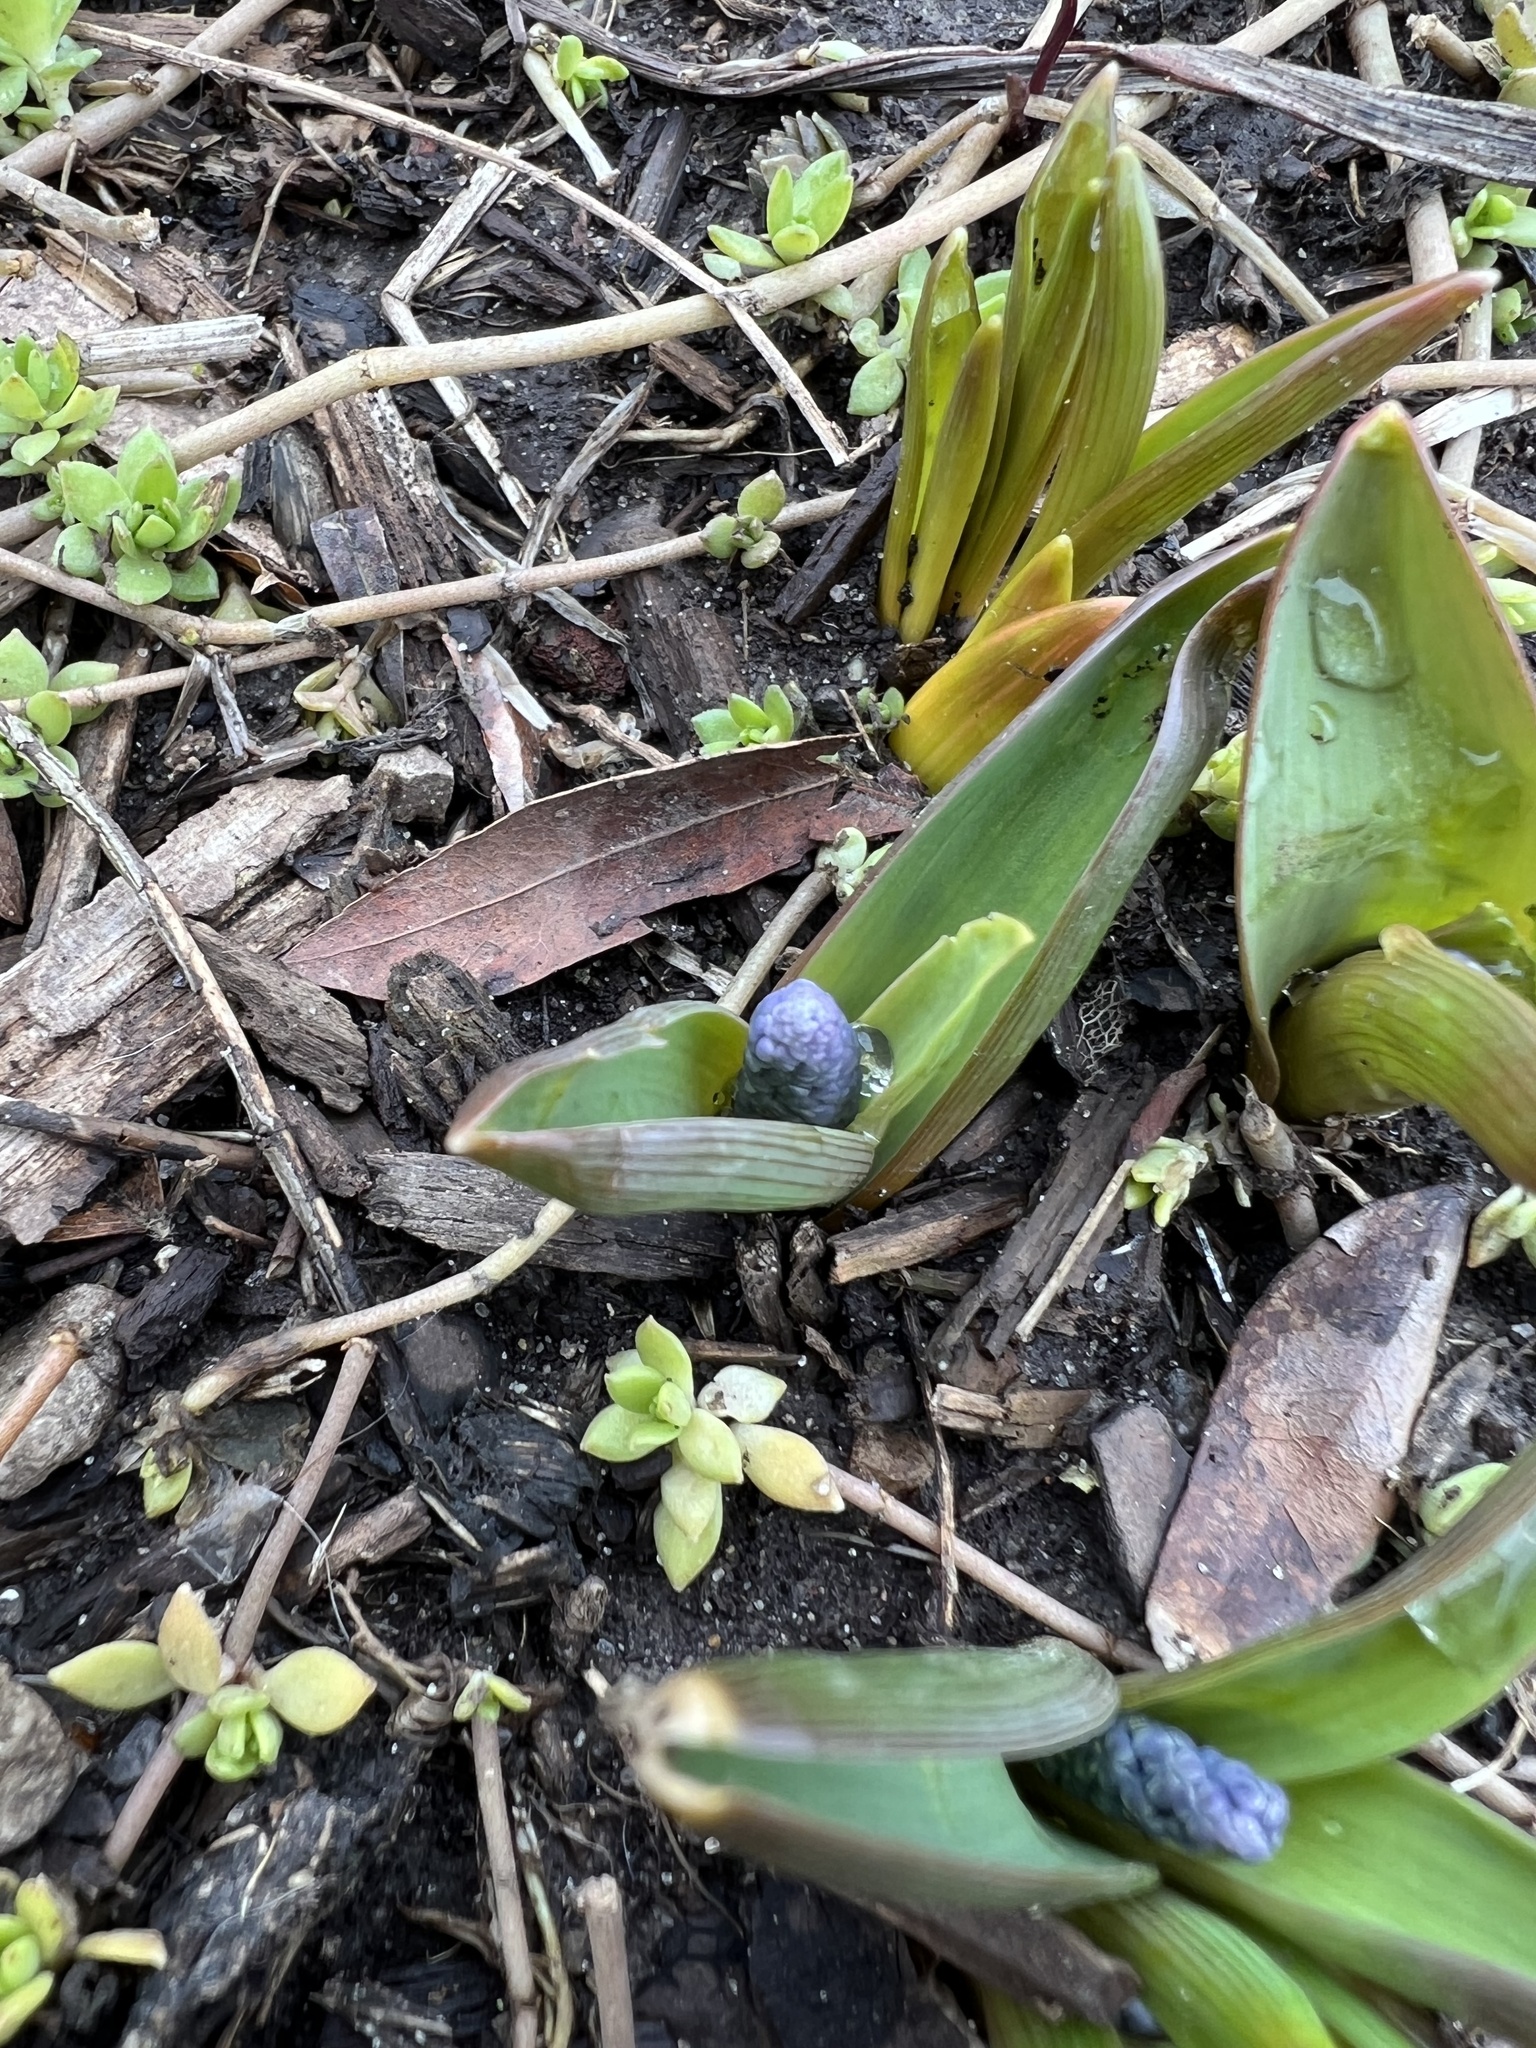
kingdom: Plantae
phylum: Tracheophyta
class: Liliopsida
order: Asparagales
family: Asparagaceae
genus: Scilla
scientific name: Scilla siberica
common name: Siberian squill
